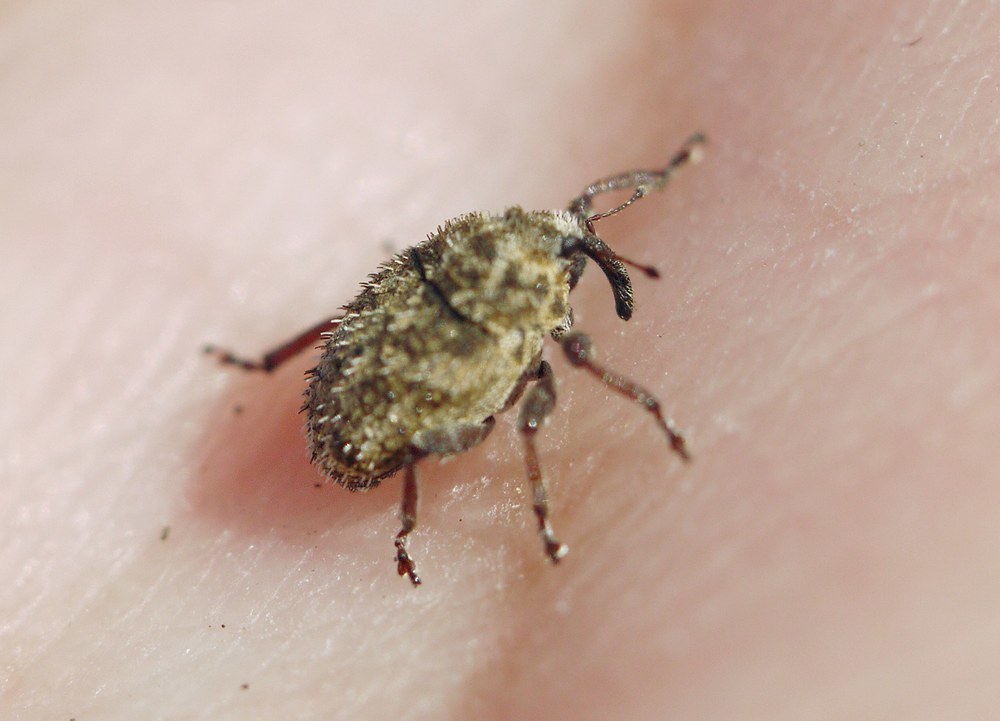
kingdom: Animalia
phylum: Arthropoda
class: Insecta
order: Coleoptera
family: Curculionidae
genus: Trichosirocalus
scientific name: Trichosirocalus horridus
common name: Musk thistle rosette weevil
